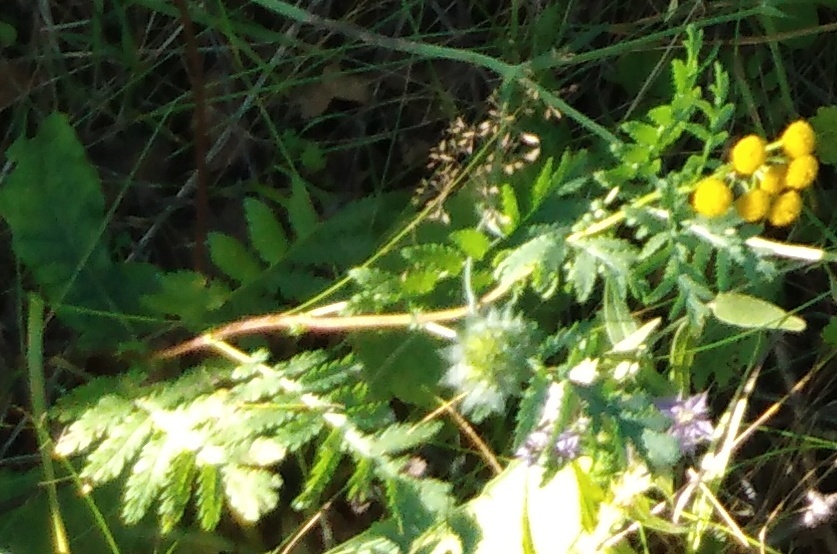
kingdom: Plantae
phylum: Tracheophyta
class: Magnoliopsida
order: Asterales
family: Asteraceae
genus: Tanacetum
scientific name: Tanacetum vulgare
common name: Common tansy
